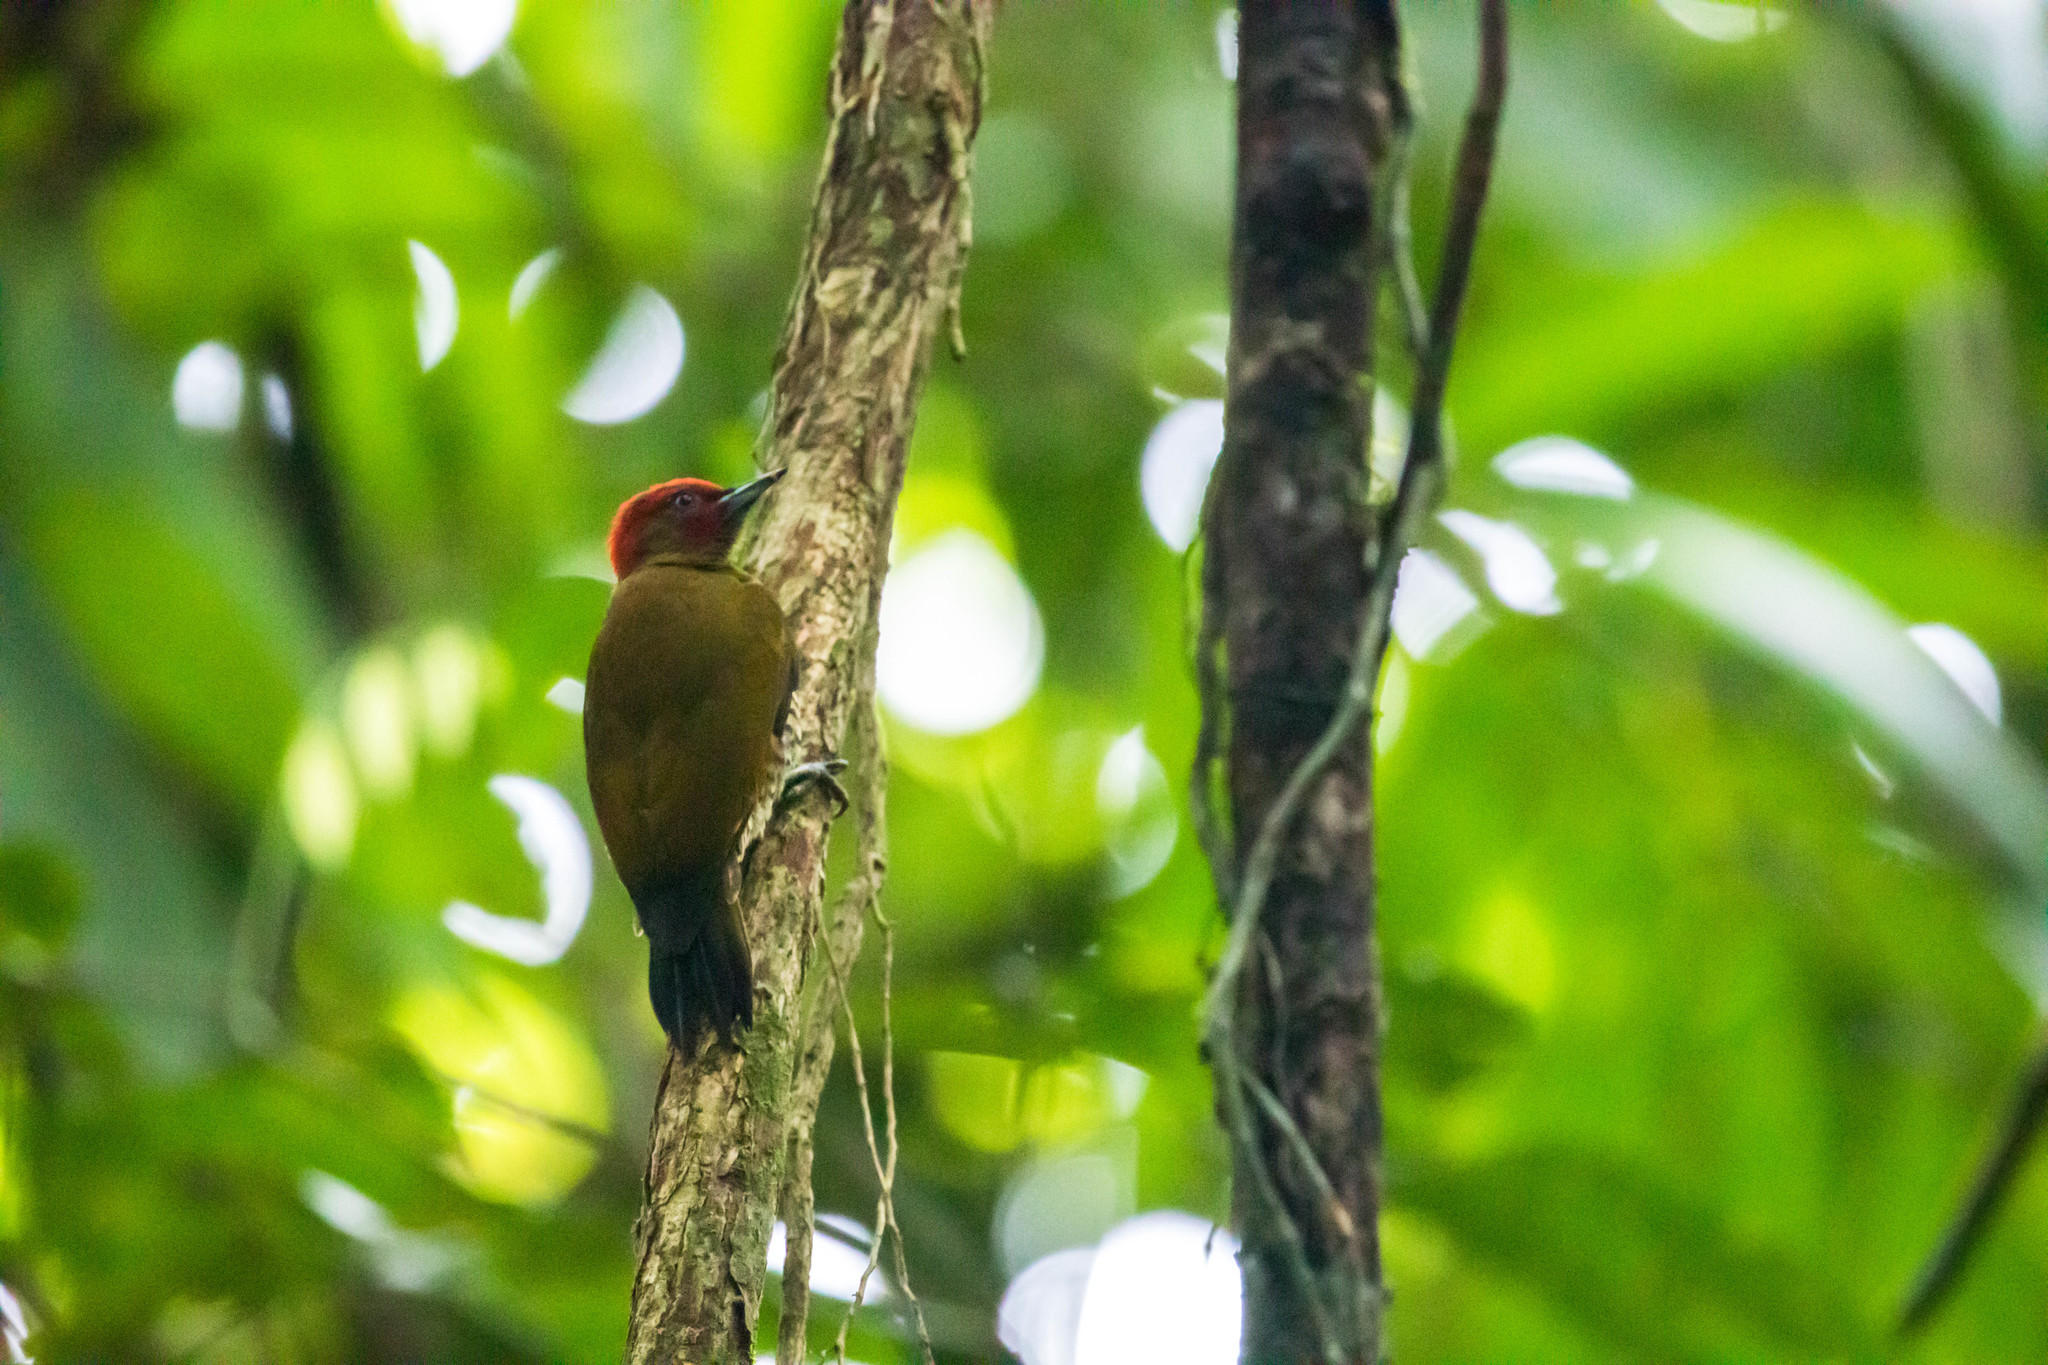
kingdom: Animalia
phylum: Chordata
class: Aves
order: Piciformes
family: Picidae
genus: Piculus
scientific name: Piculus simplex
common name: Rufous-winged woodpecker
